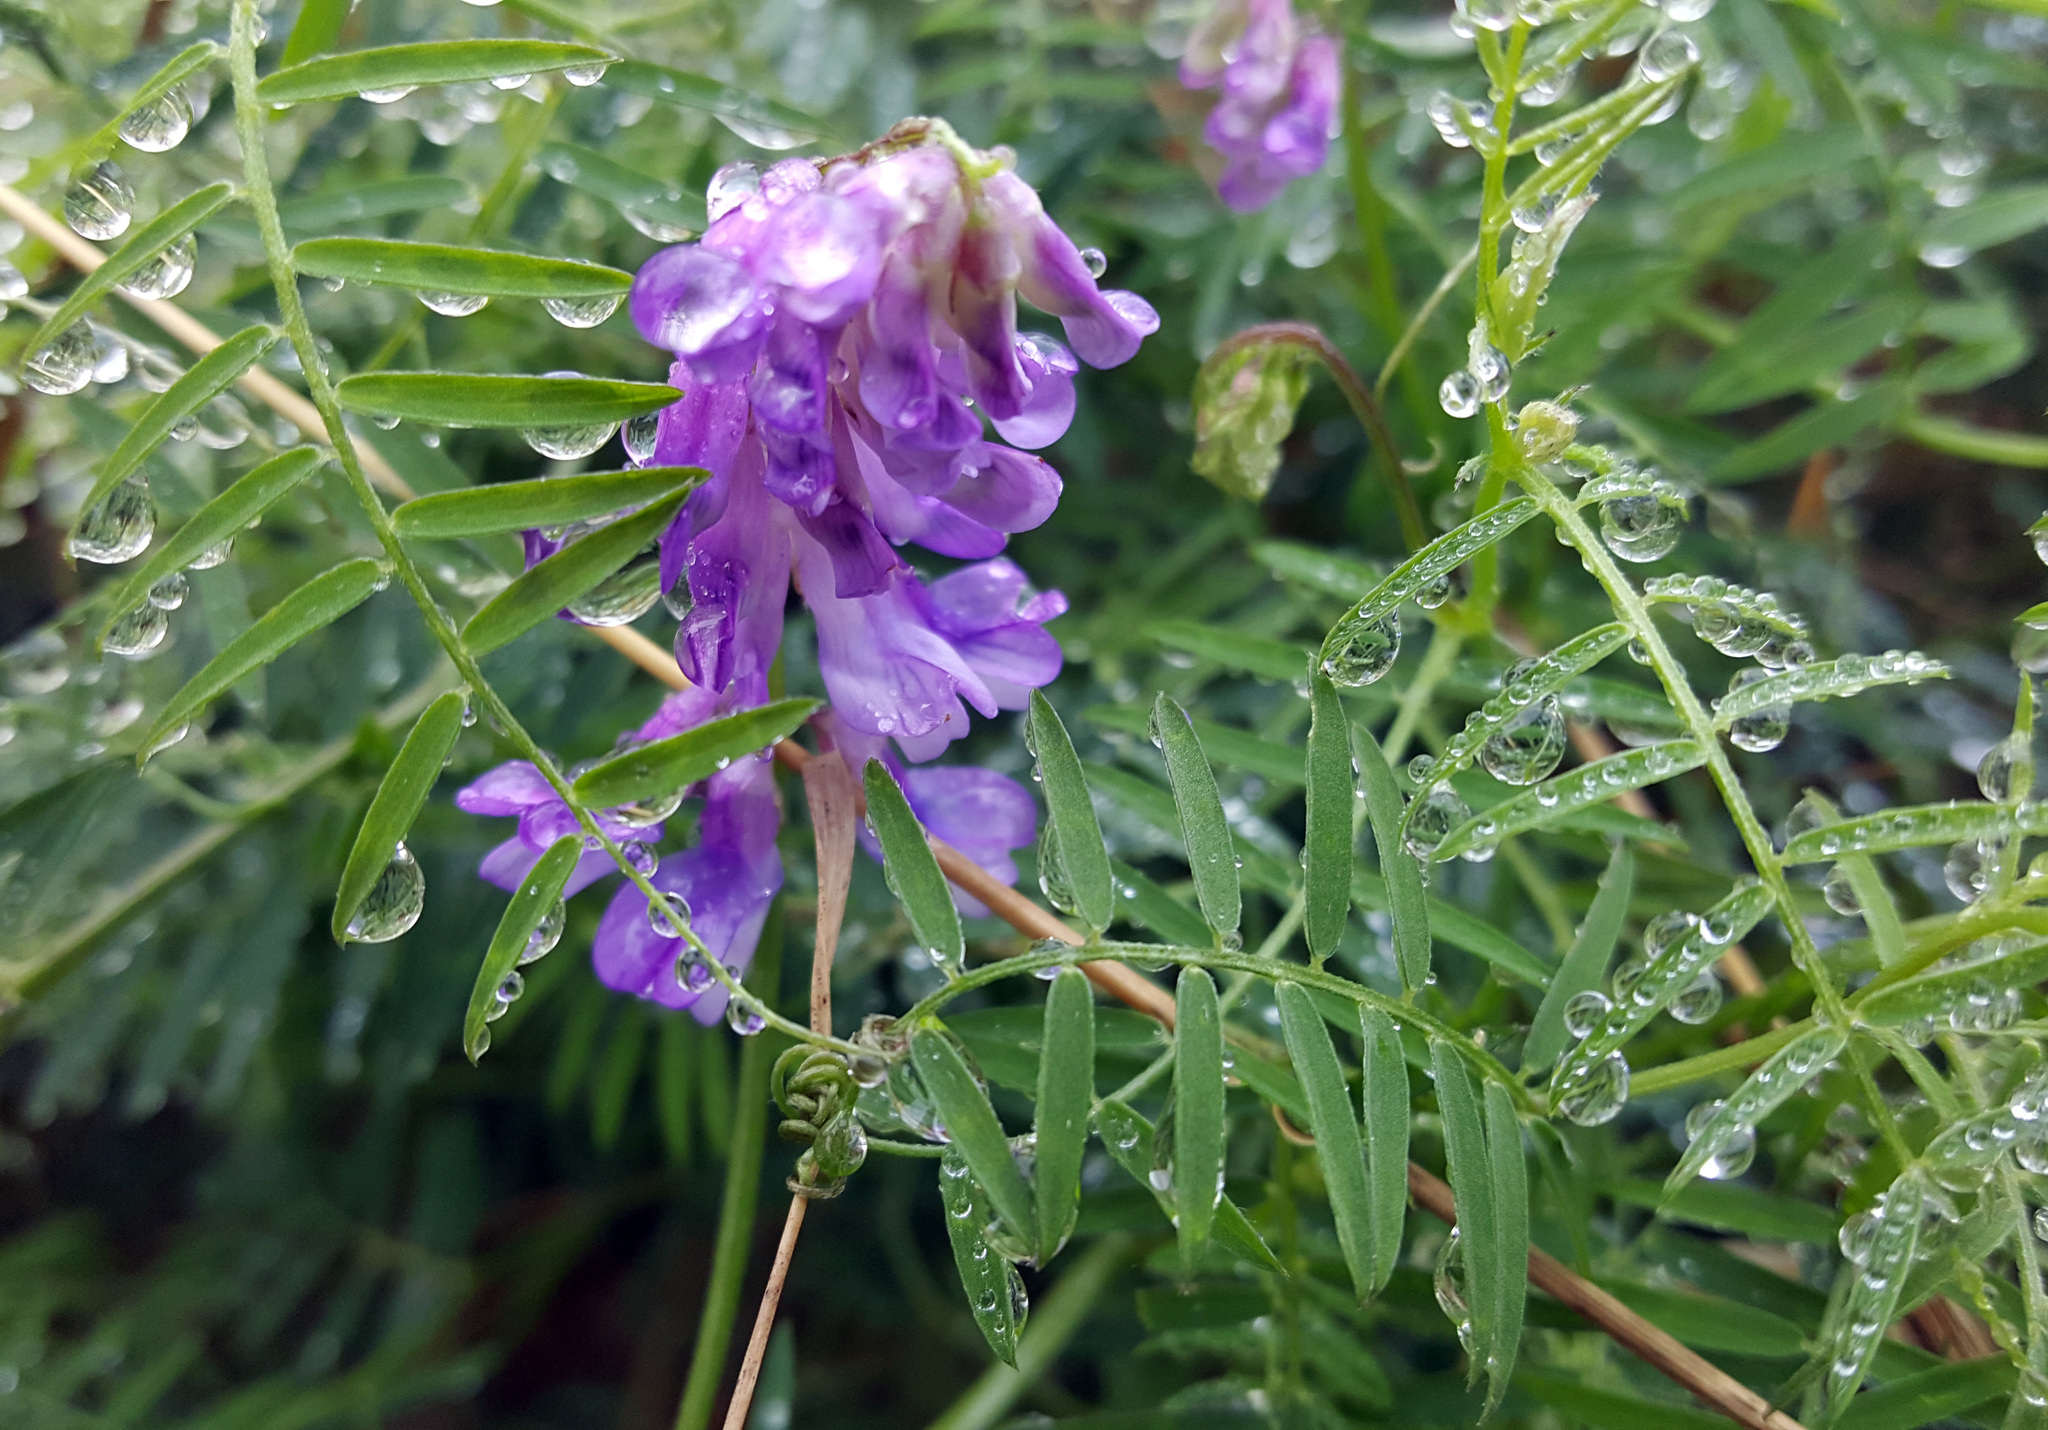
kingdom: Plantae
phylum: Tracheophyta
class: Magnoliopsida
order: Fabales
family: Fabaceae
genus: Vicia
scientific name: Vicia cracca
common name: Bird vetch
